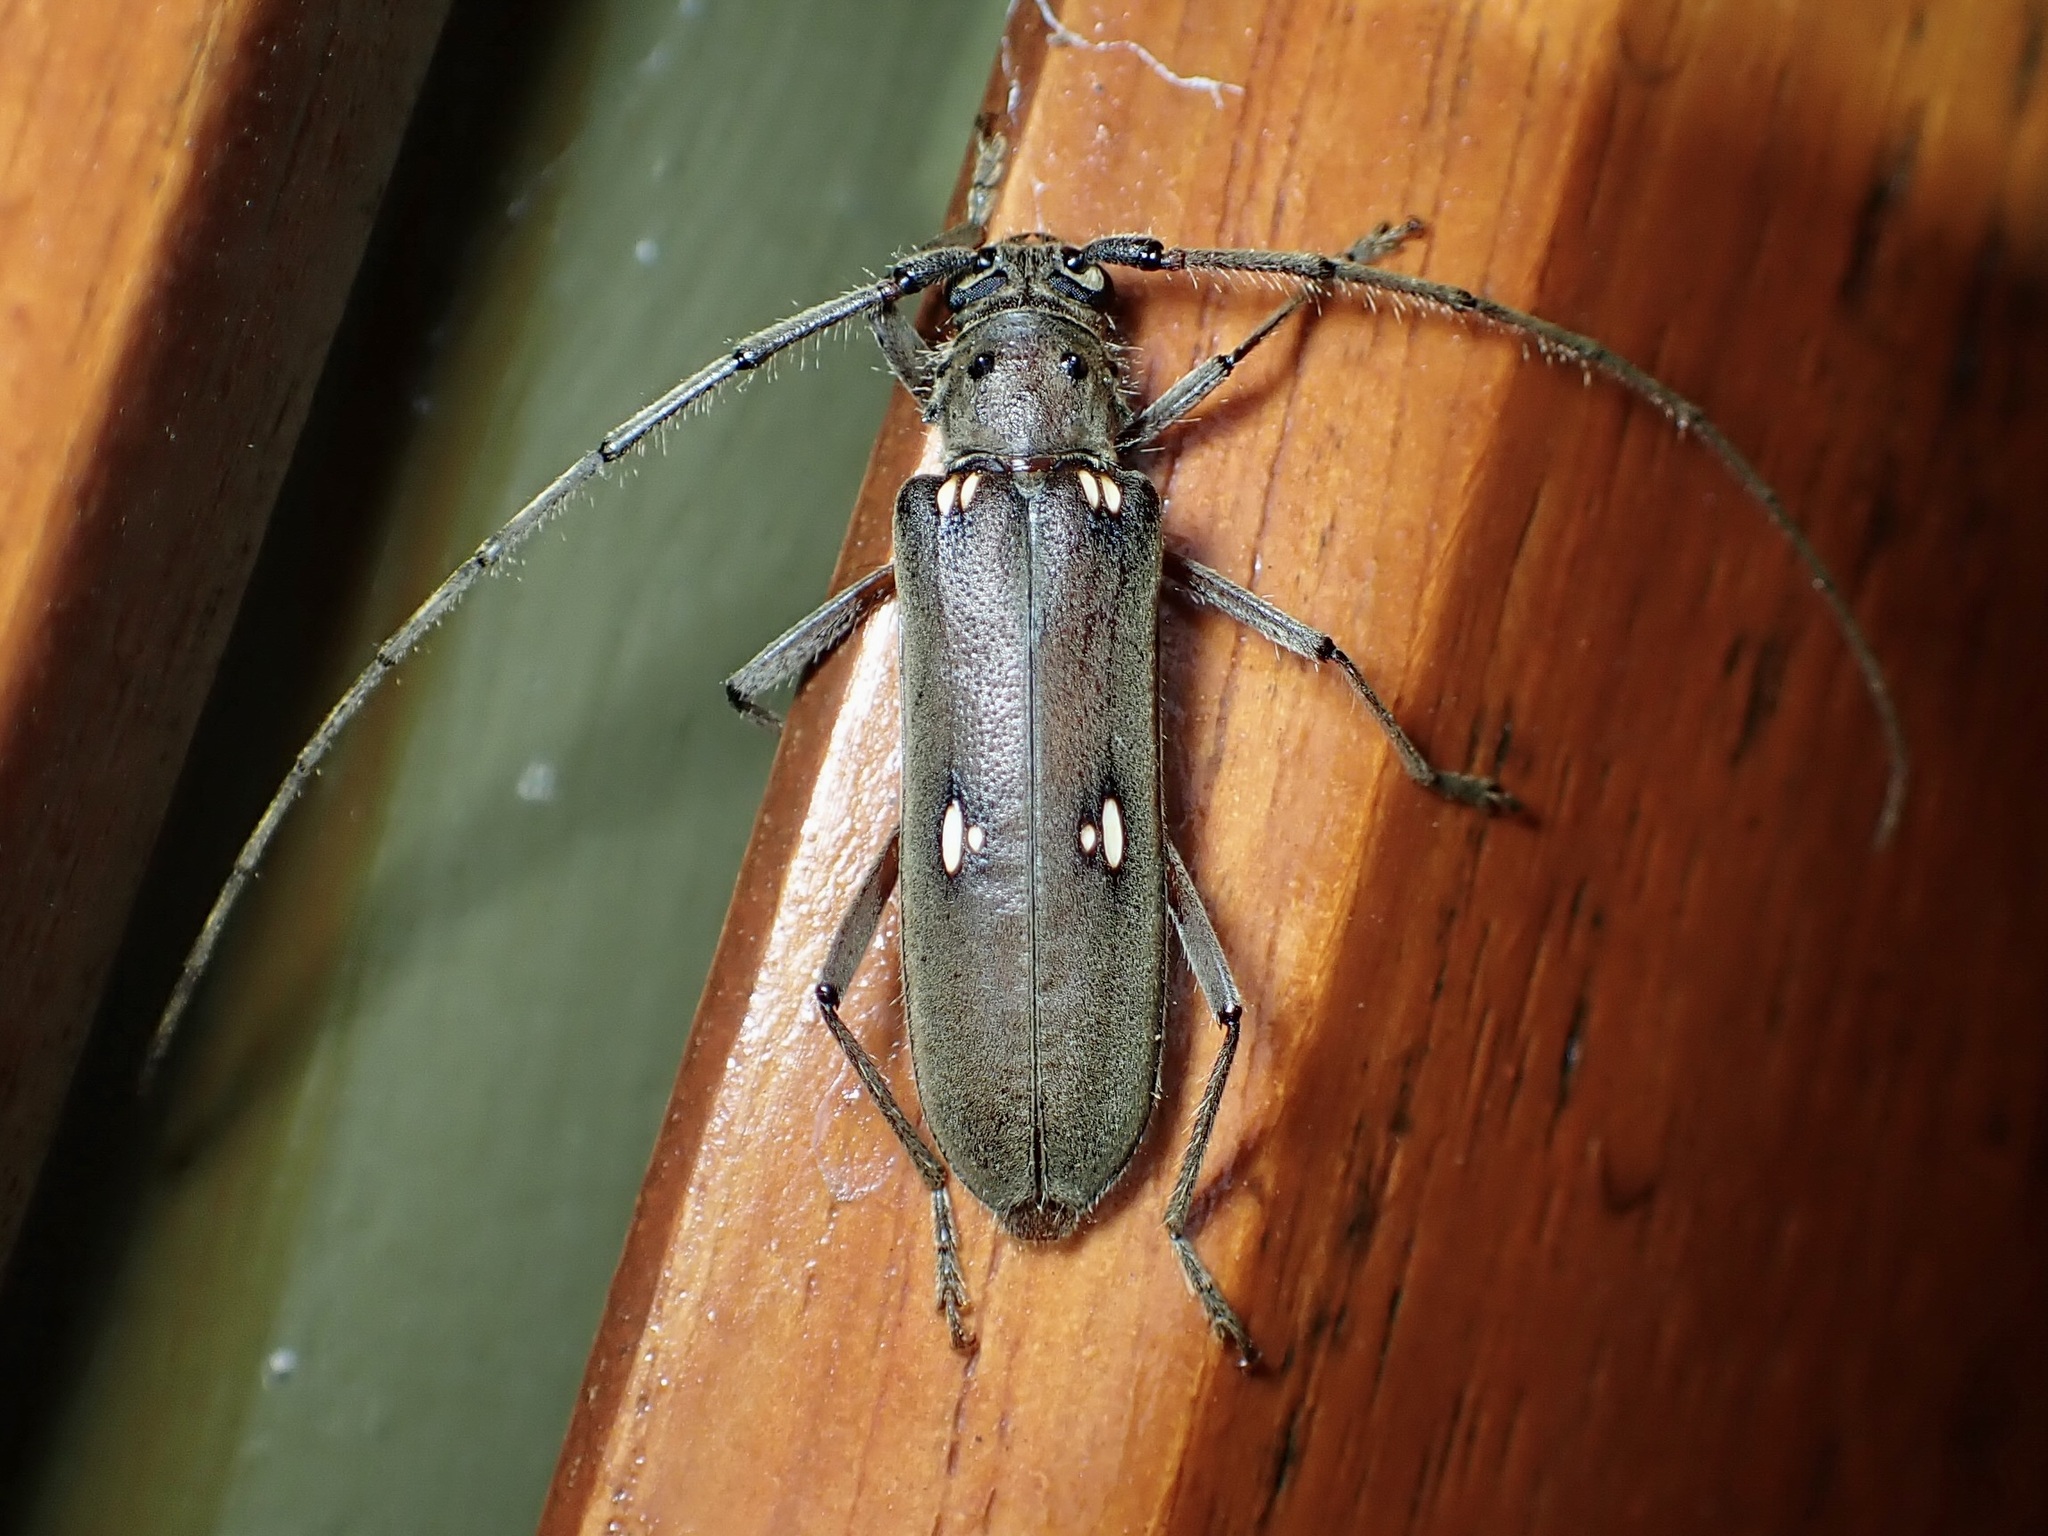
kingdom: Animalia
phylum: Arthropoda
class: Insecta
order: Coleoptera
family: Cerambycidae
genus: Pantomallus
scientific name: Pantomallus fuligineus
